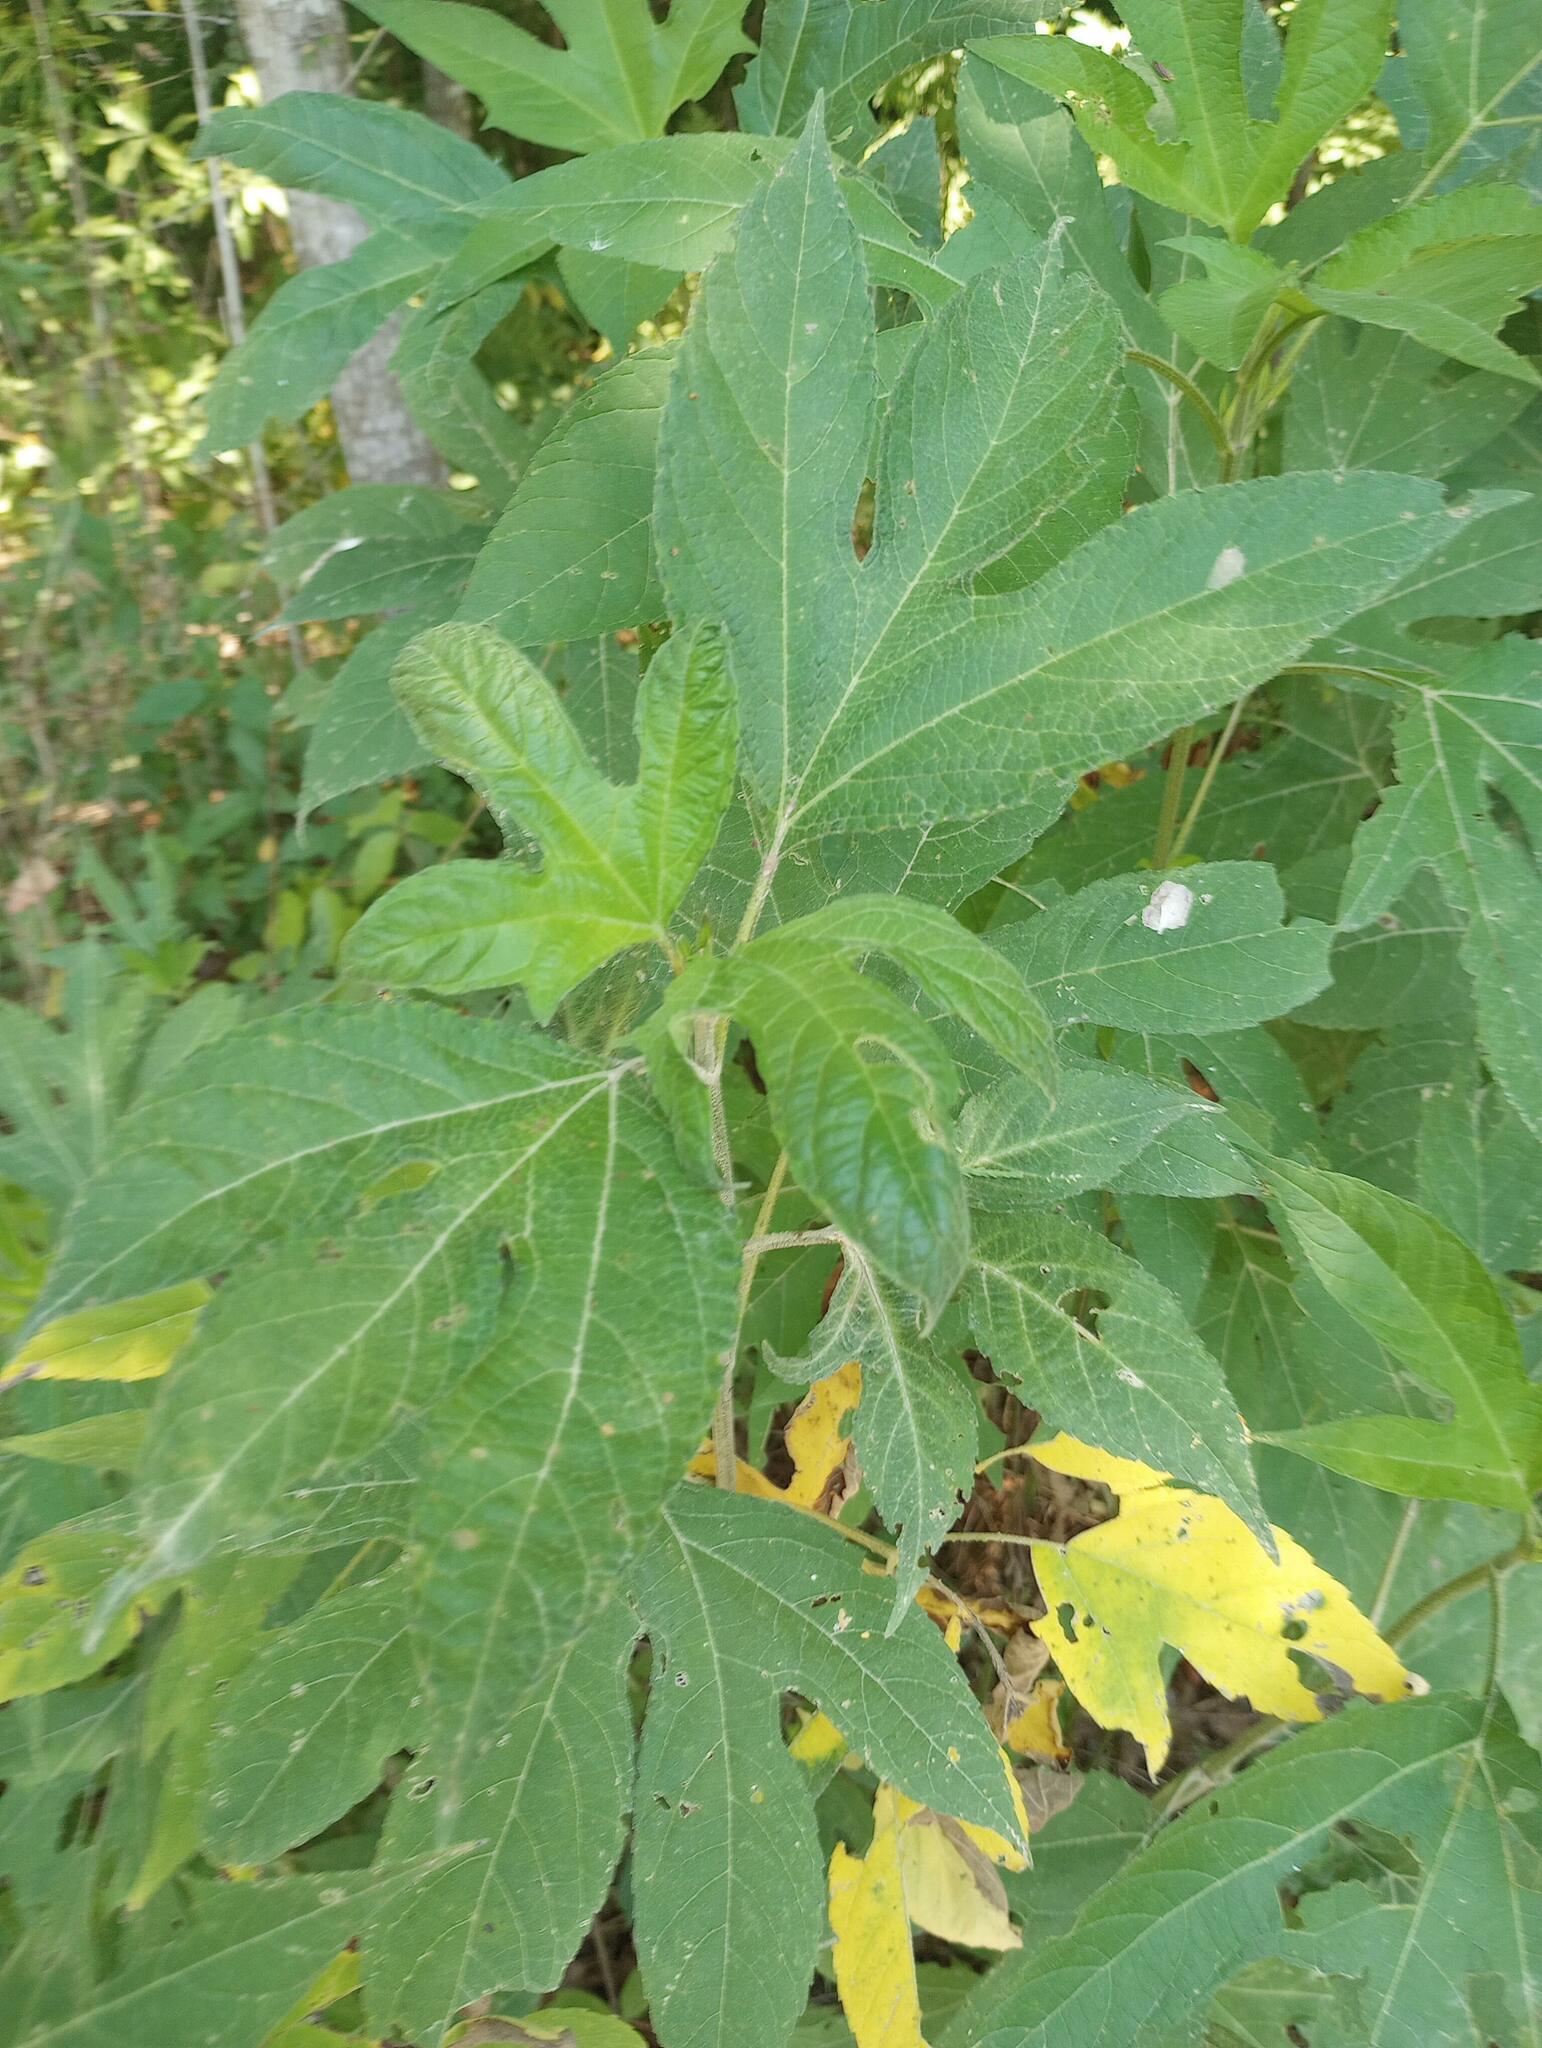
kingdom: Plantae
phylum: Tracheophyta
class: Magnoliopsida
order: Asterales
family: Asteraceae
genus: Ambrosia
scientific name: Ambrosia trifida
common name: Giant ragweed
